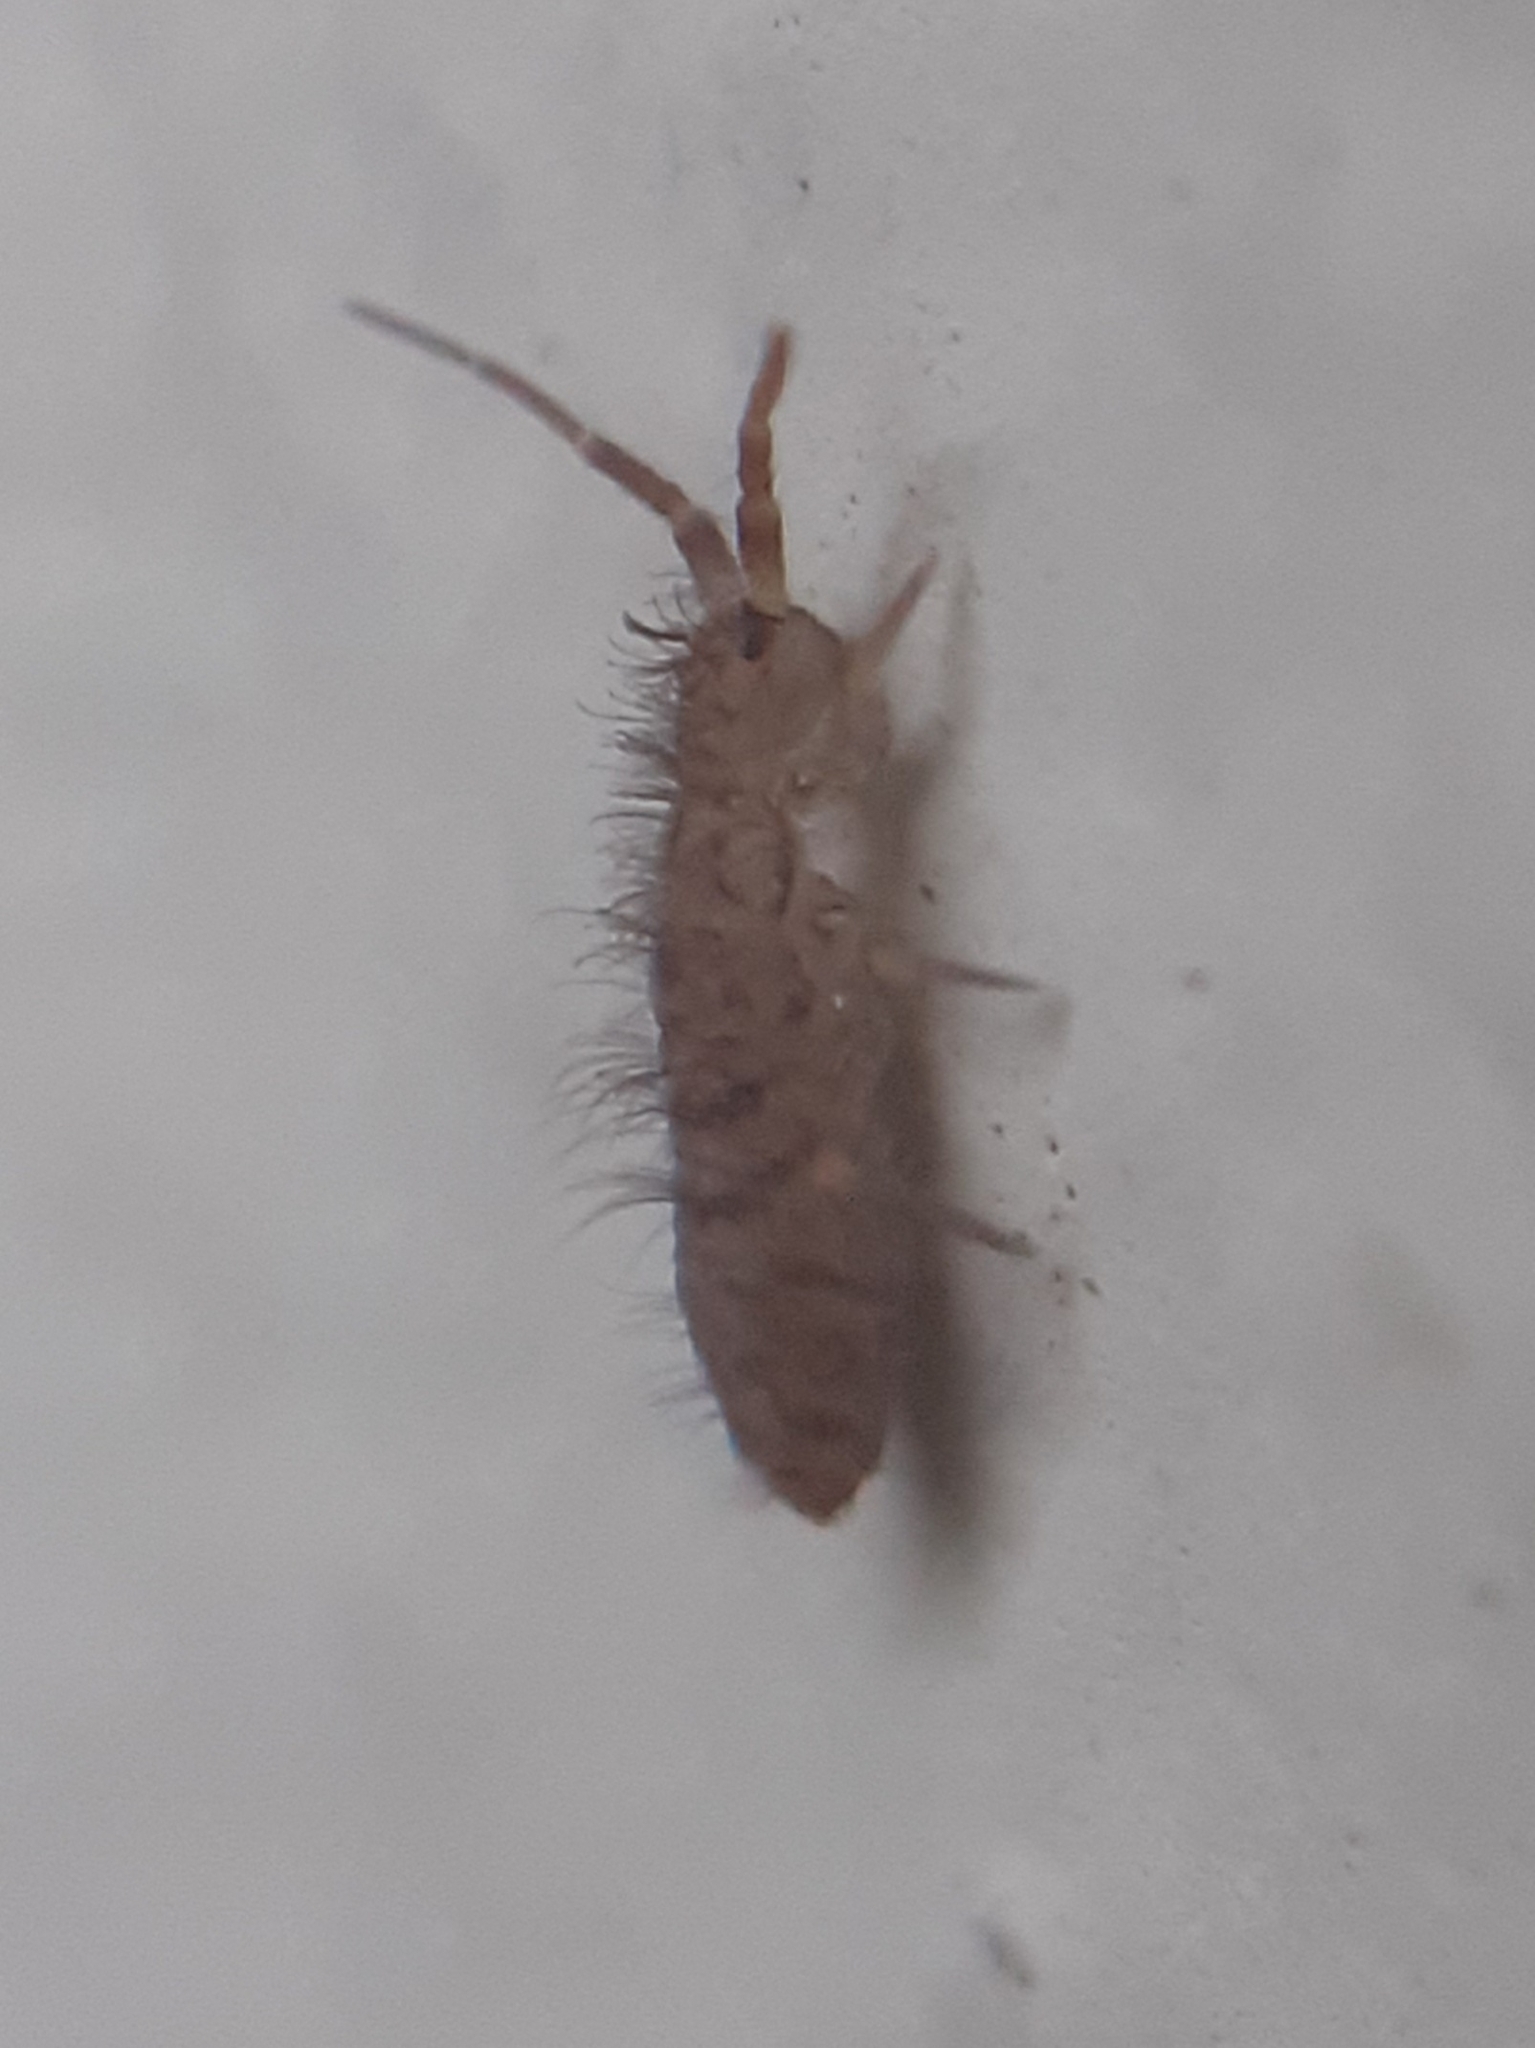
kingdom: Animalia
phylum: Arthropoda
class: Collembola
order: Entomobryomorpha
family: Orchesellidae
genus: Orchesella
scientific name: Orchesella villosa
